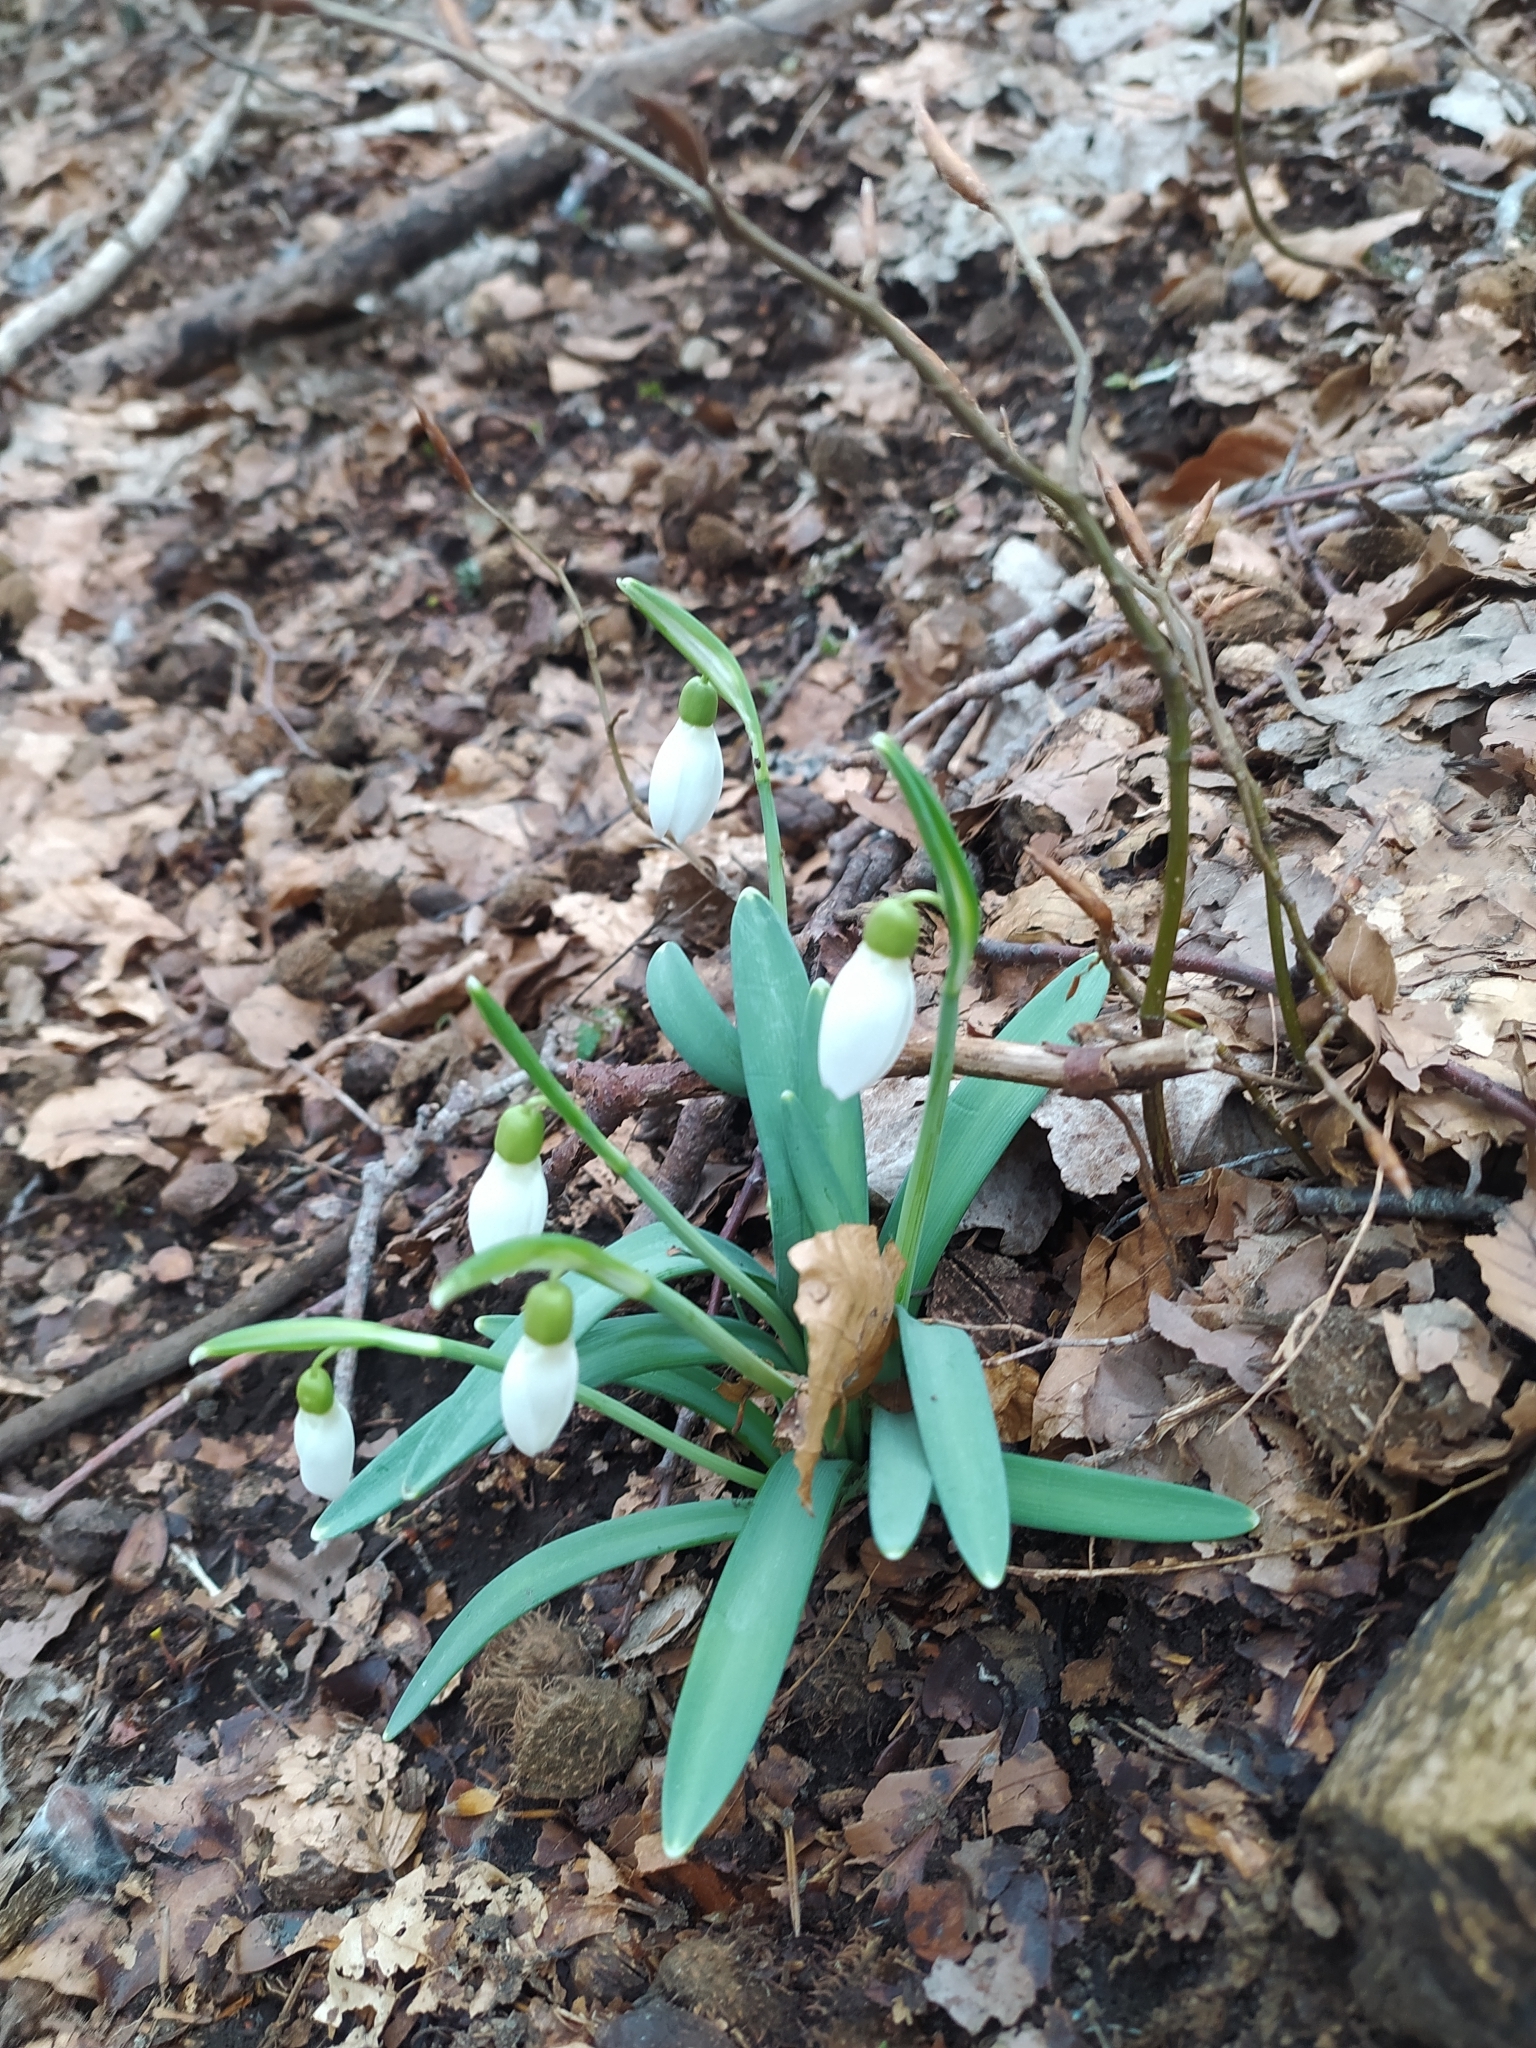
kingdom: Plantae
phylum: Tracheophyta
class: Liliopsida
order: Asparagales
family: Amaryllidaceae
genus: Galanthus
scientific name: Galanthus nivalis
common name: Snowdrop
